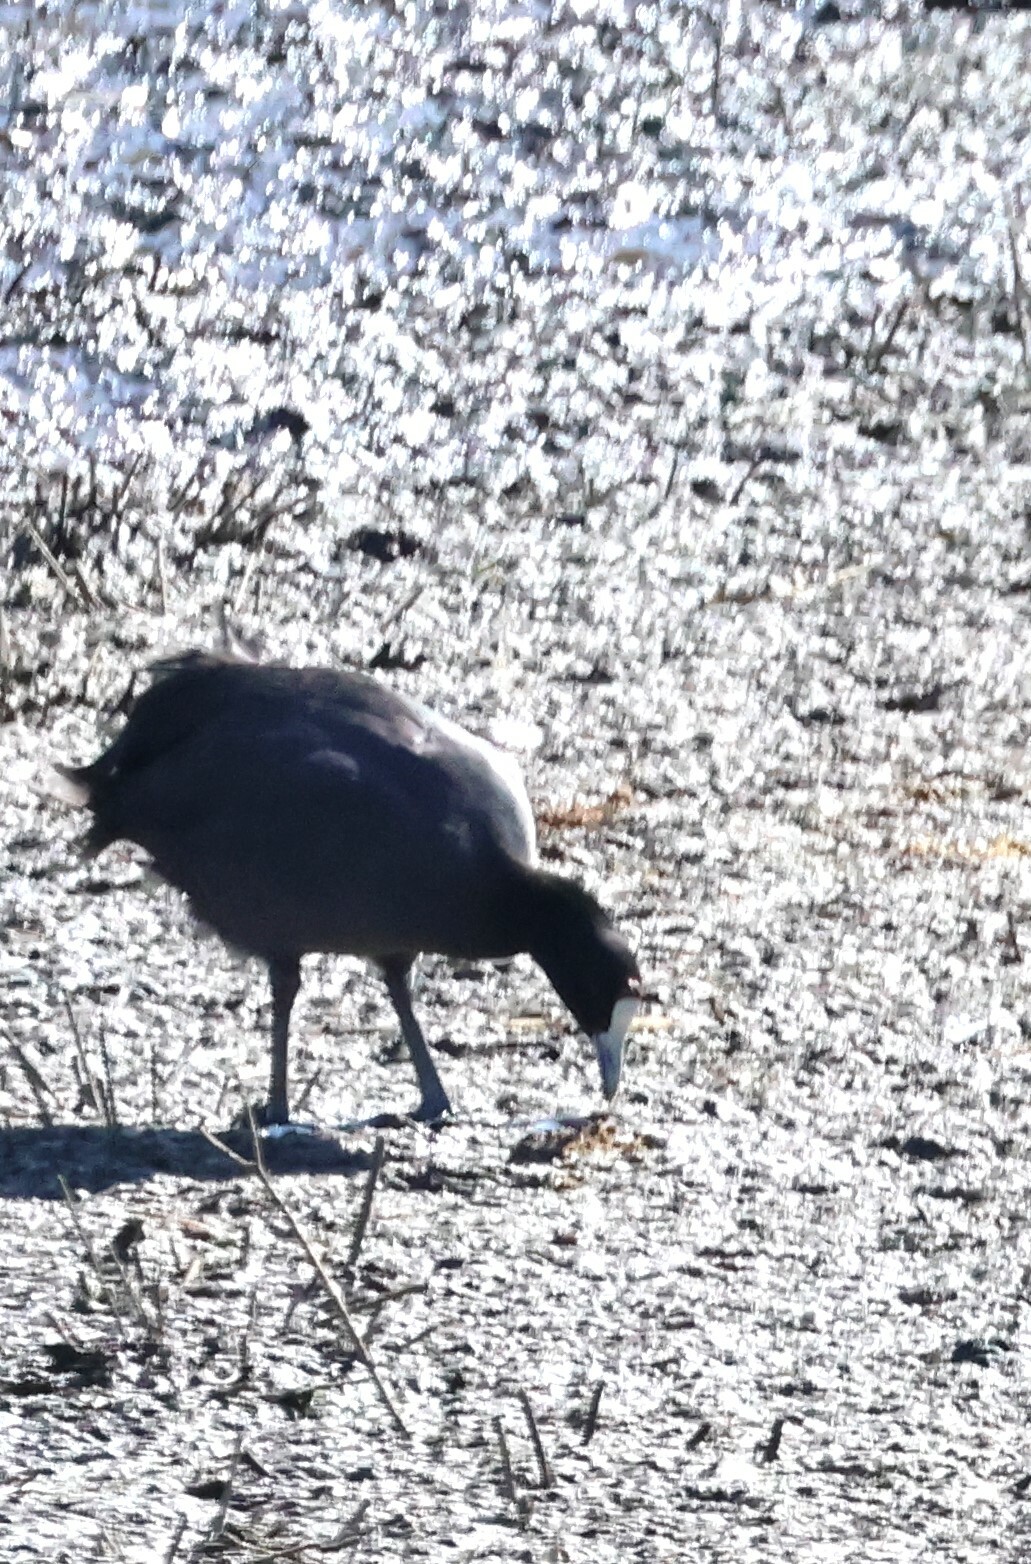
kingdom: Animalia
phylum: Chordata
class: Aves
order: Gruiformes
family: Rallidae
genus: Fulica
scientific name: Fulica cristata
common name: Red-knobbed coot
